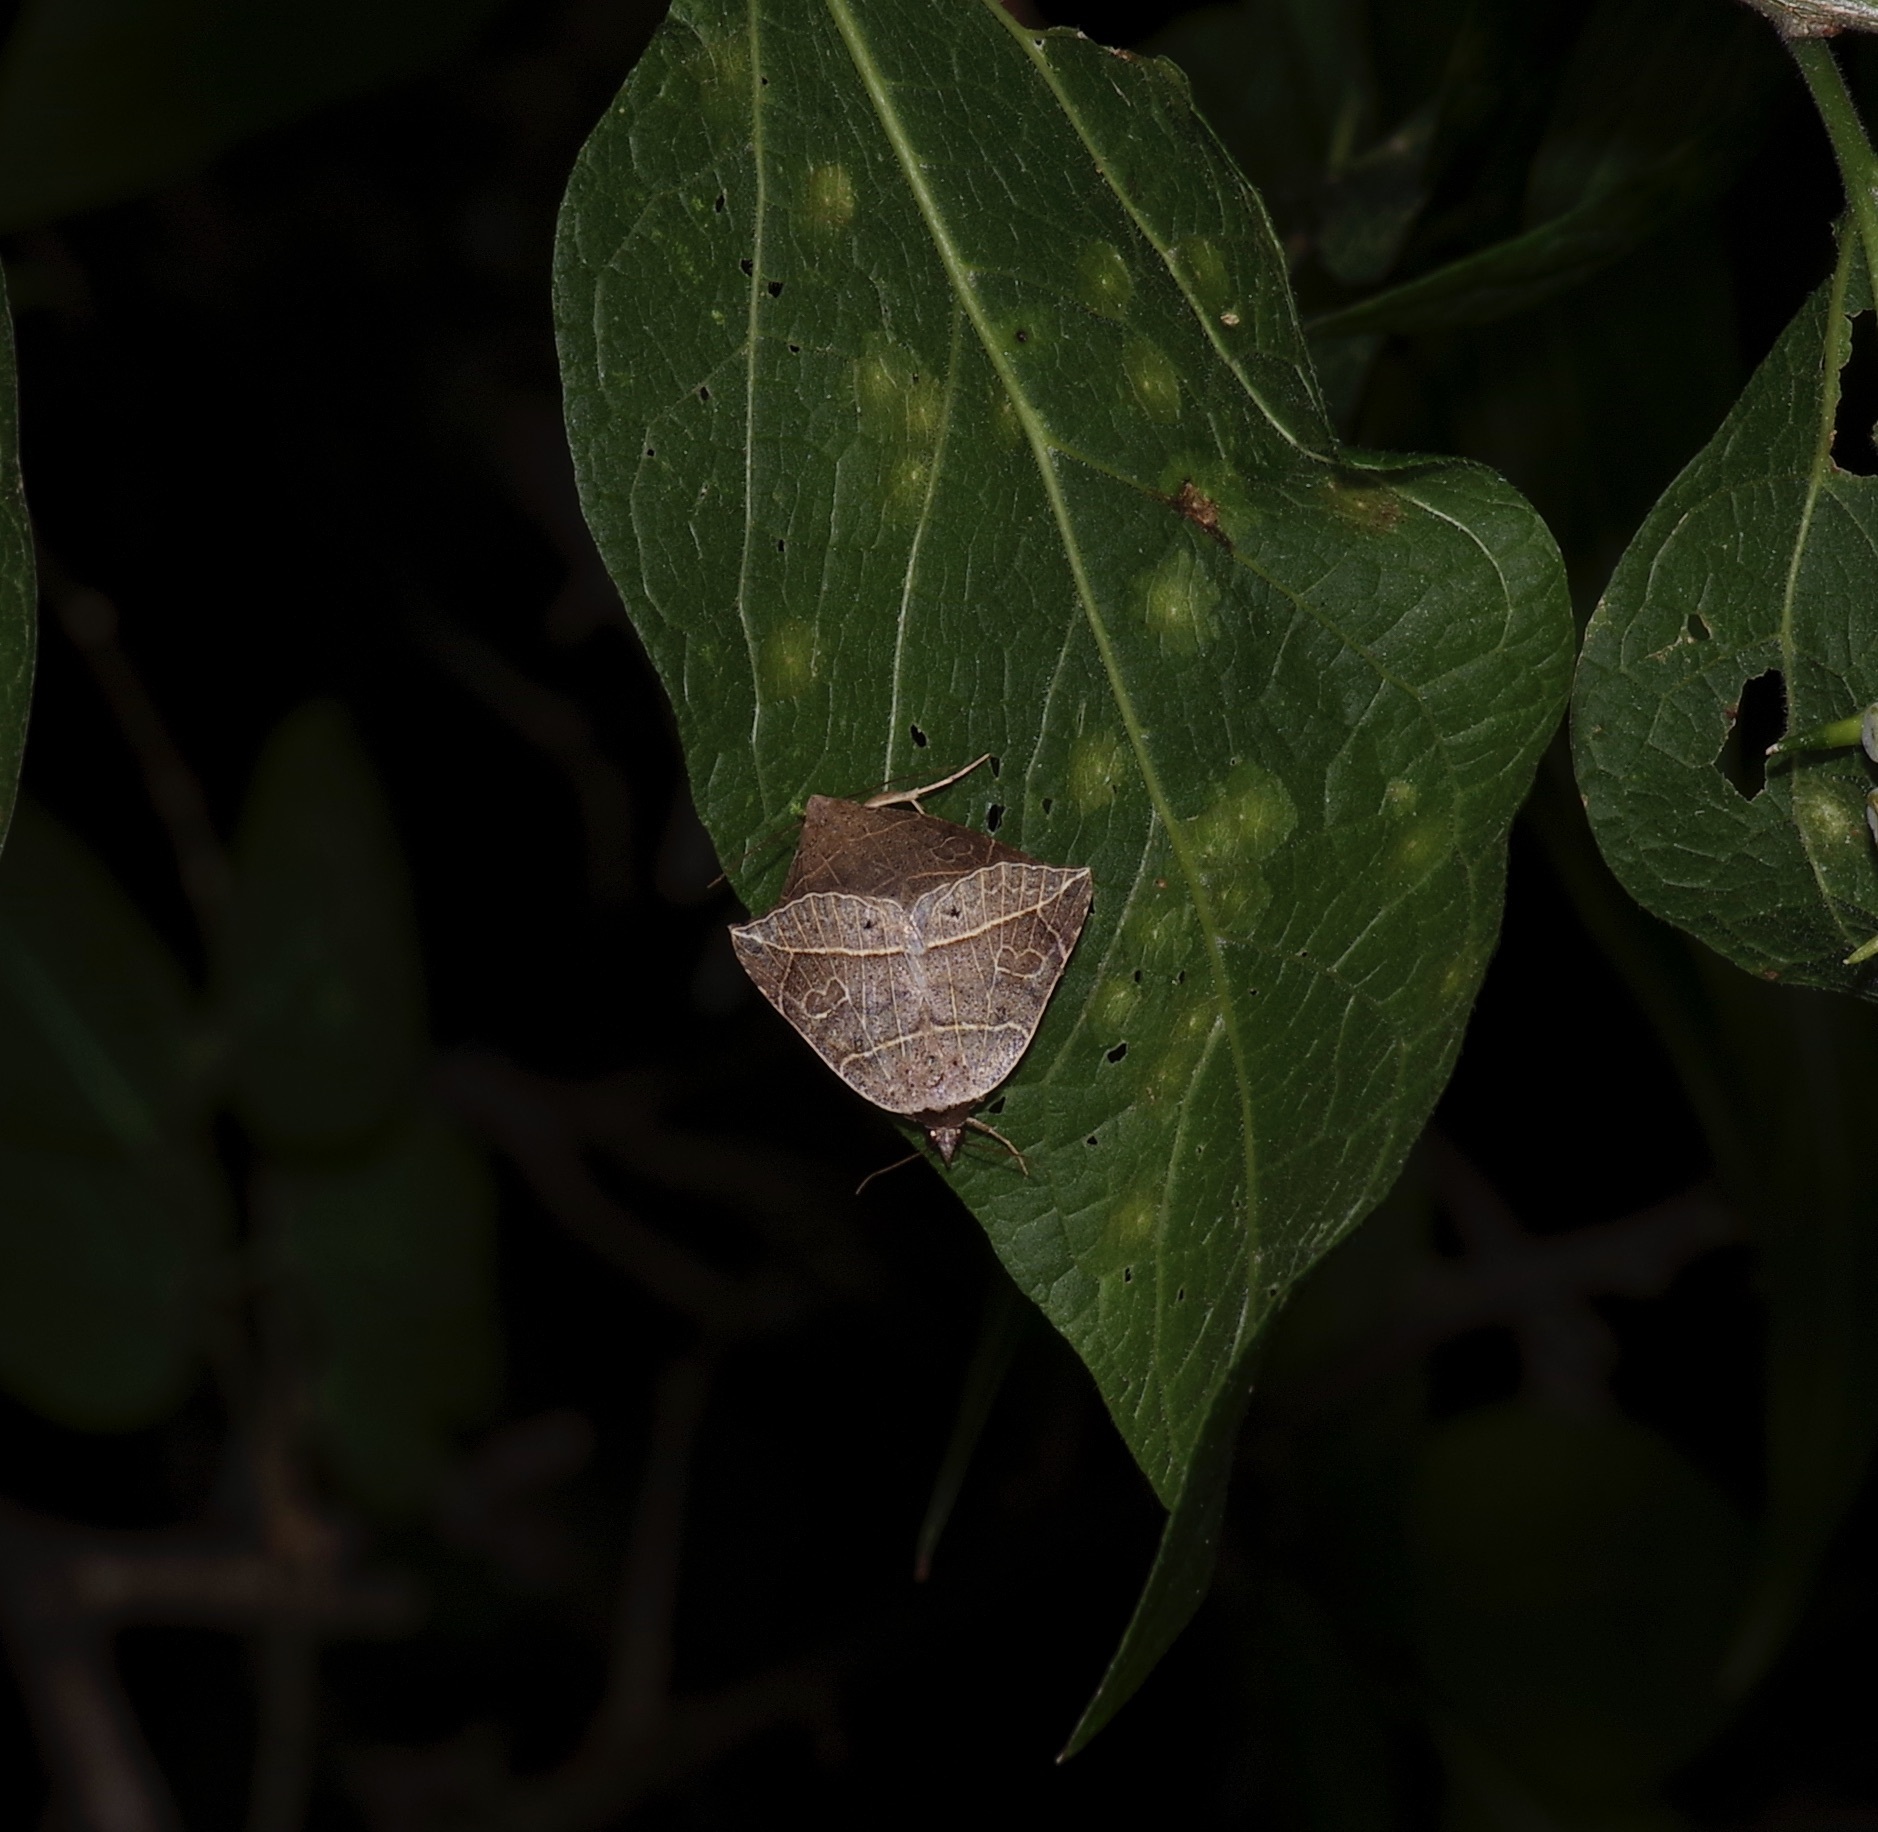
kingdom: Animalia
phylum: Arthropoda
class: Insecta
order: Lepidoptera
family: Erebidae
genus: Isogona
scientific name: Isogona tenuis
